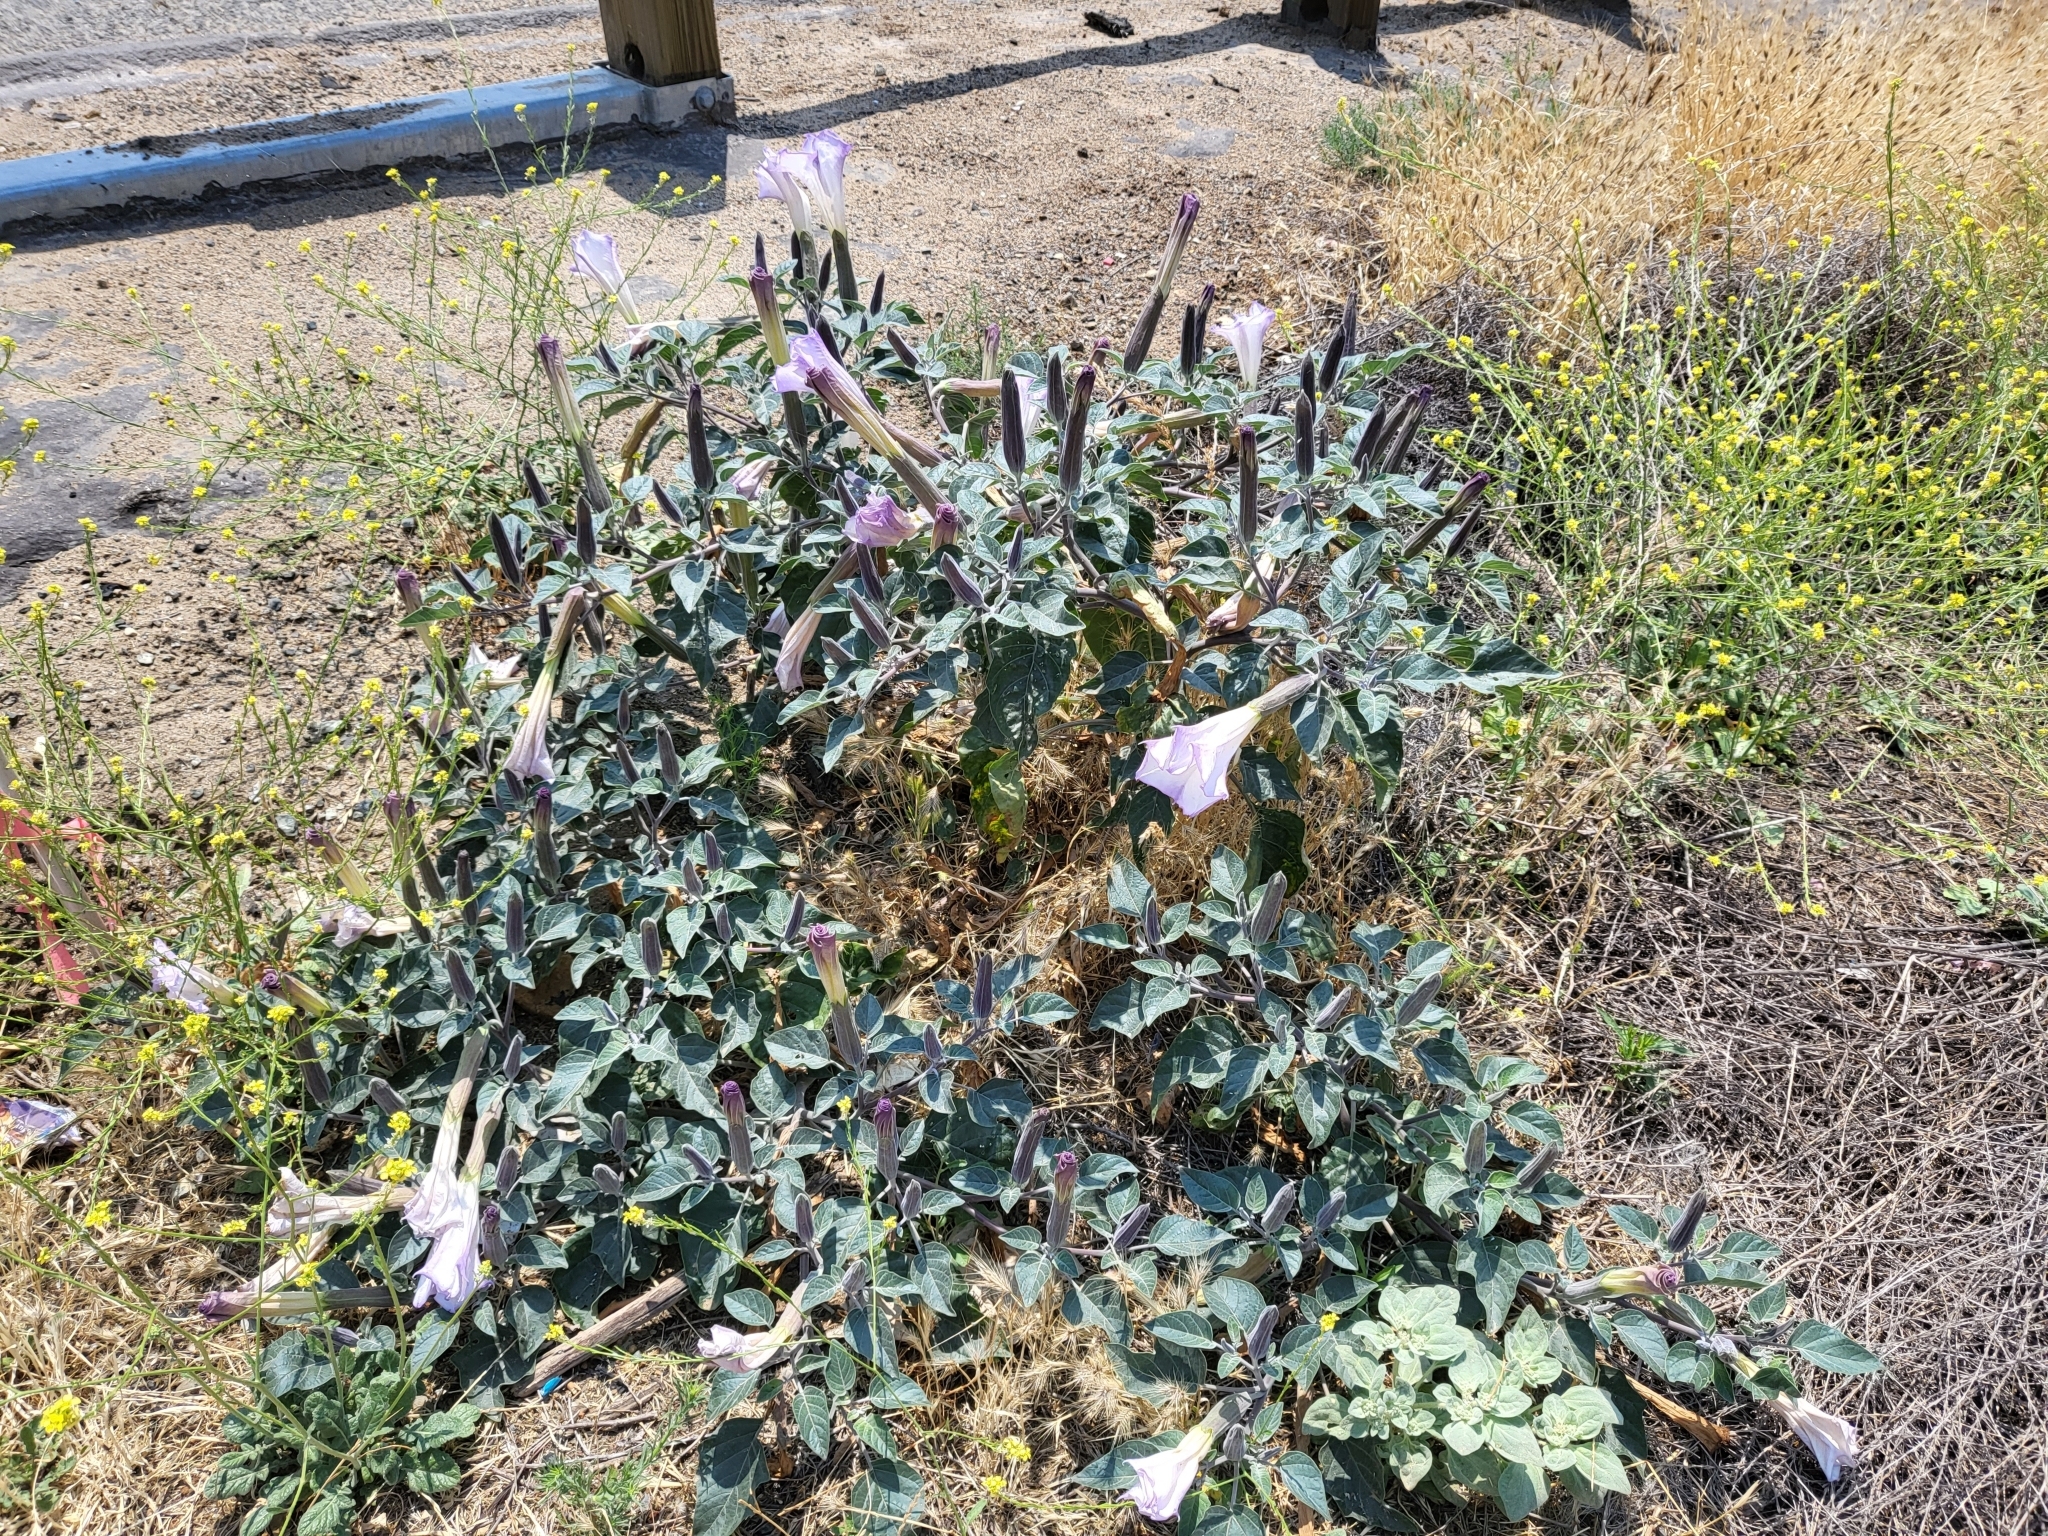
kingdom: Plantae
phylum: Tracheophyta
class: Magnoliopsida
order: Solanales
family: Solanaceae
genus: Datura
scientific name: Datura wrightii
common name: Sacred thorn-apple
